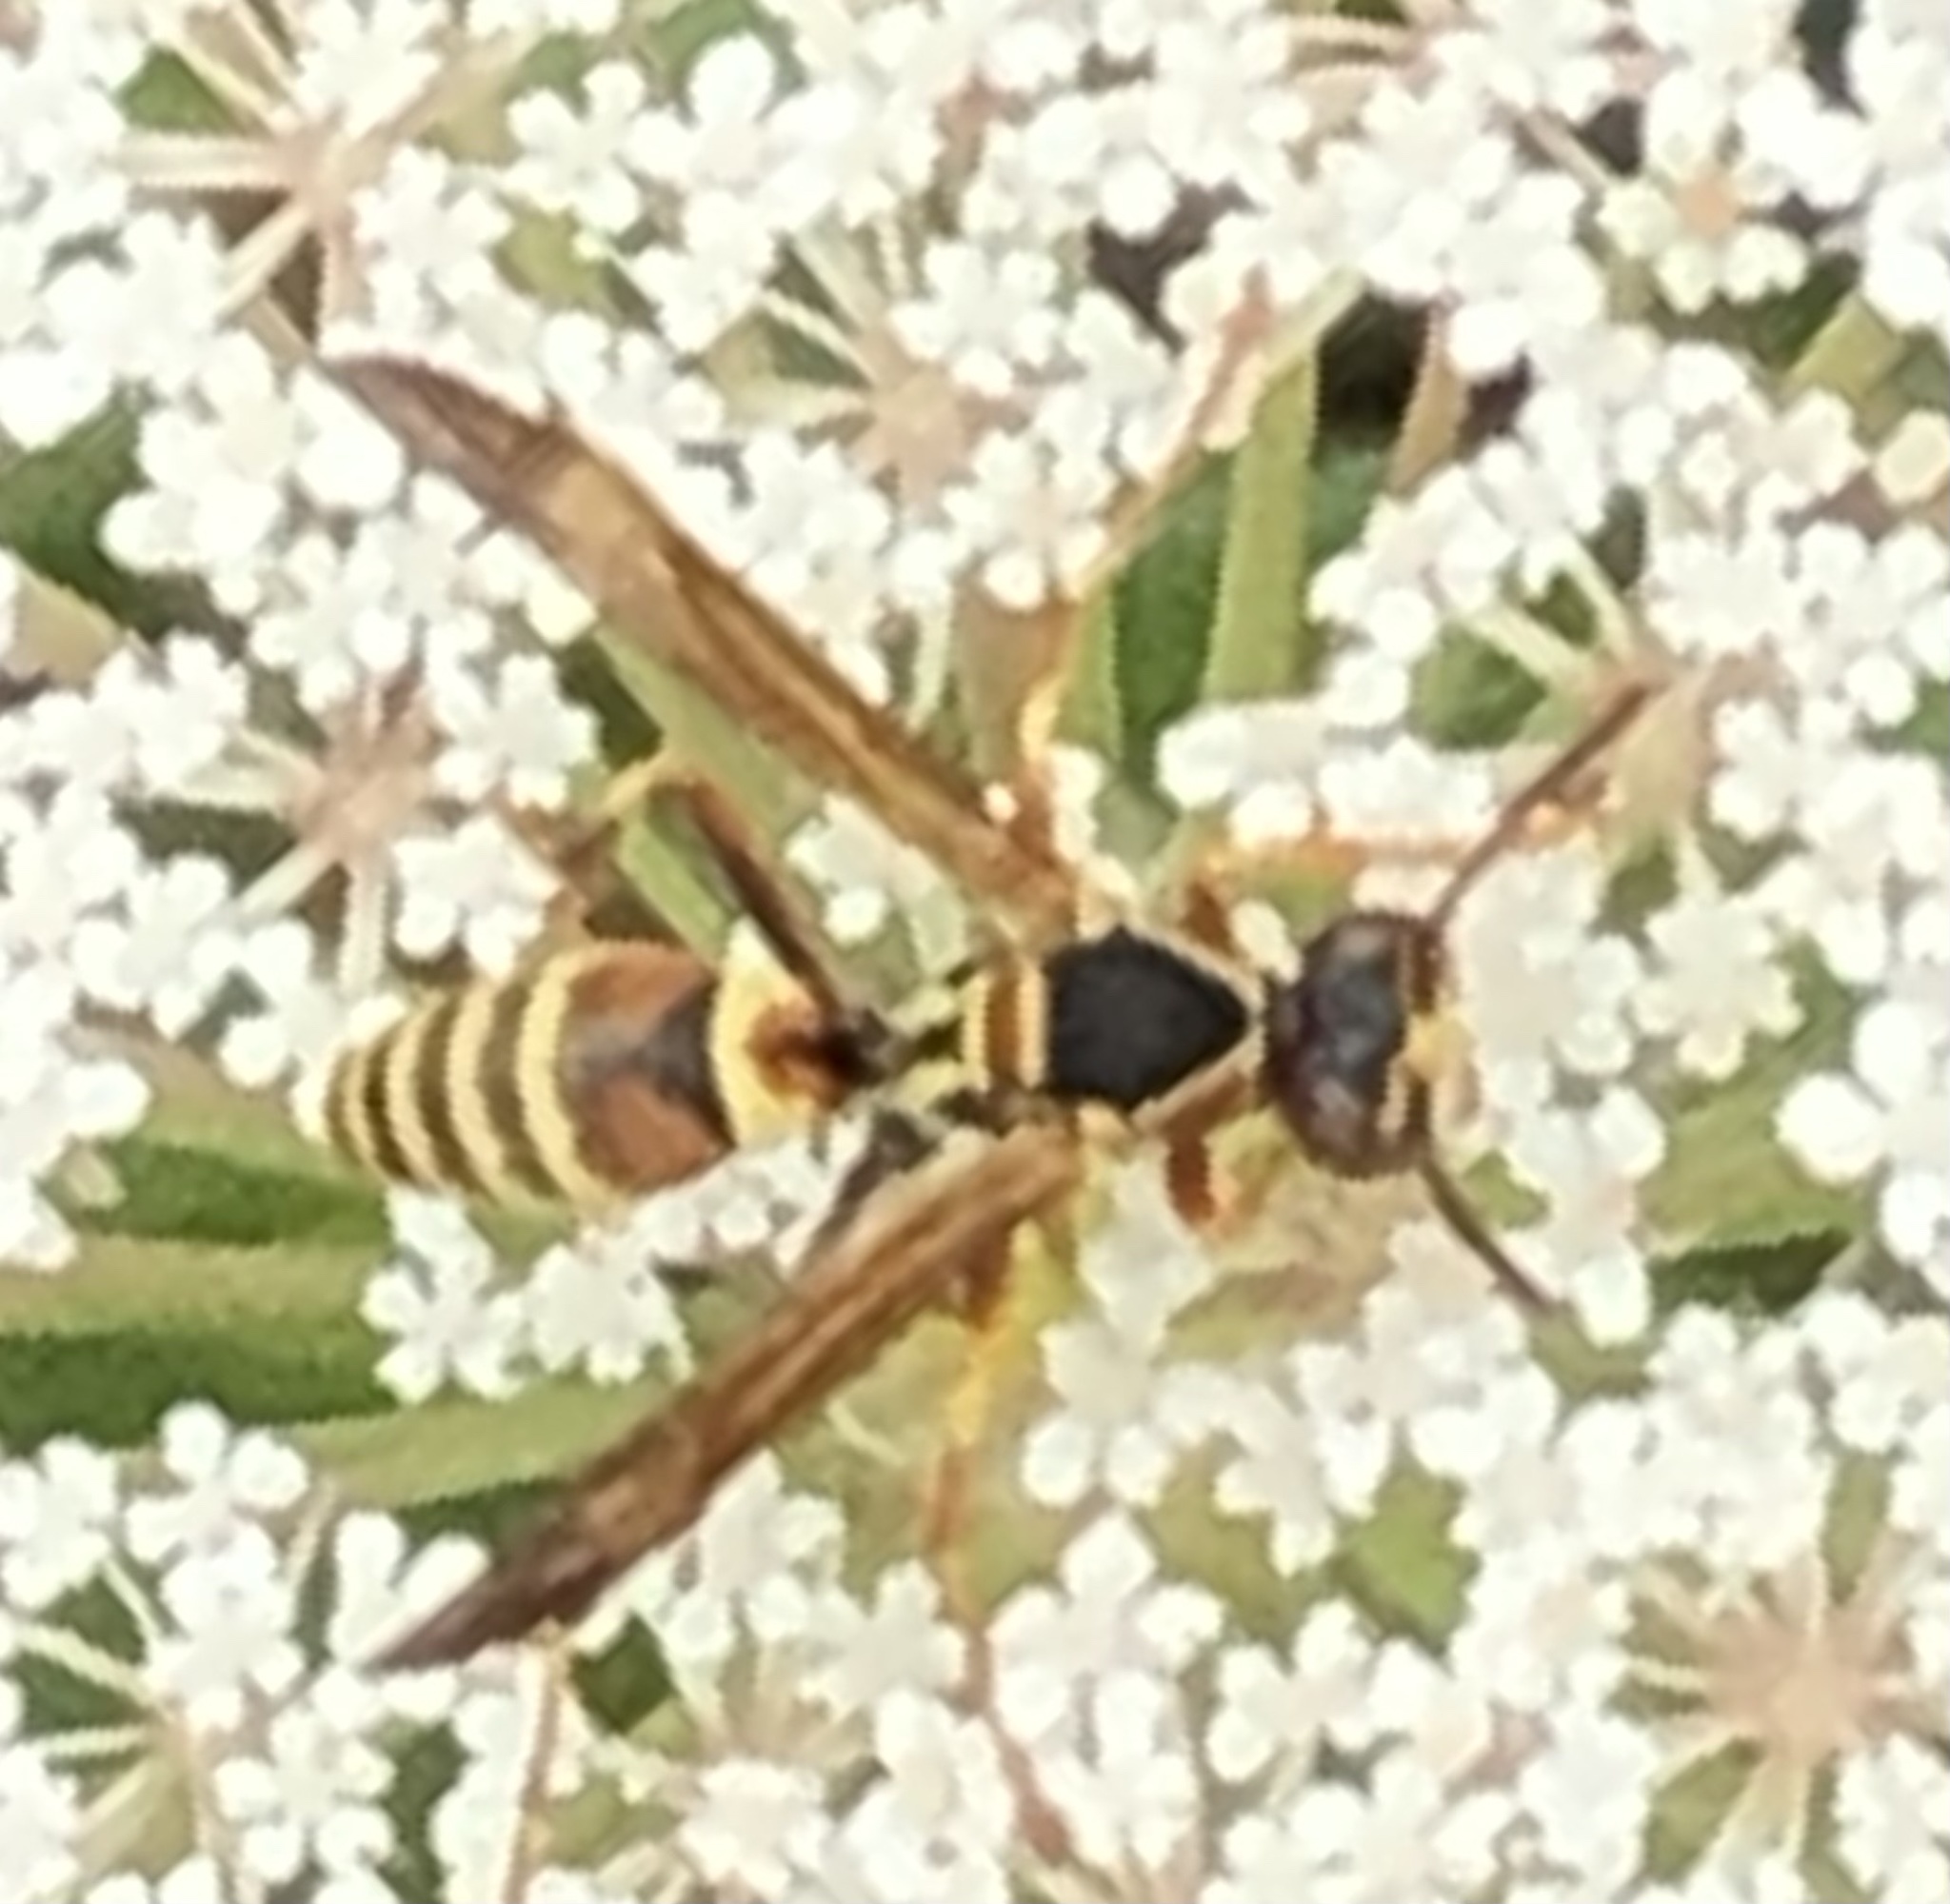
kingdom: Animalia
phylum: Arthropoda
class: Insecta
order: Hymenoptera
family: Eumenidae
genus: Polistes
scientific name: Polistes dorsalis
